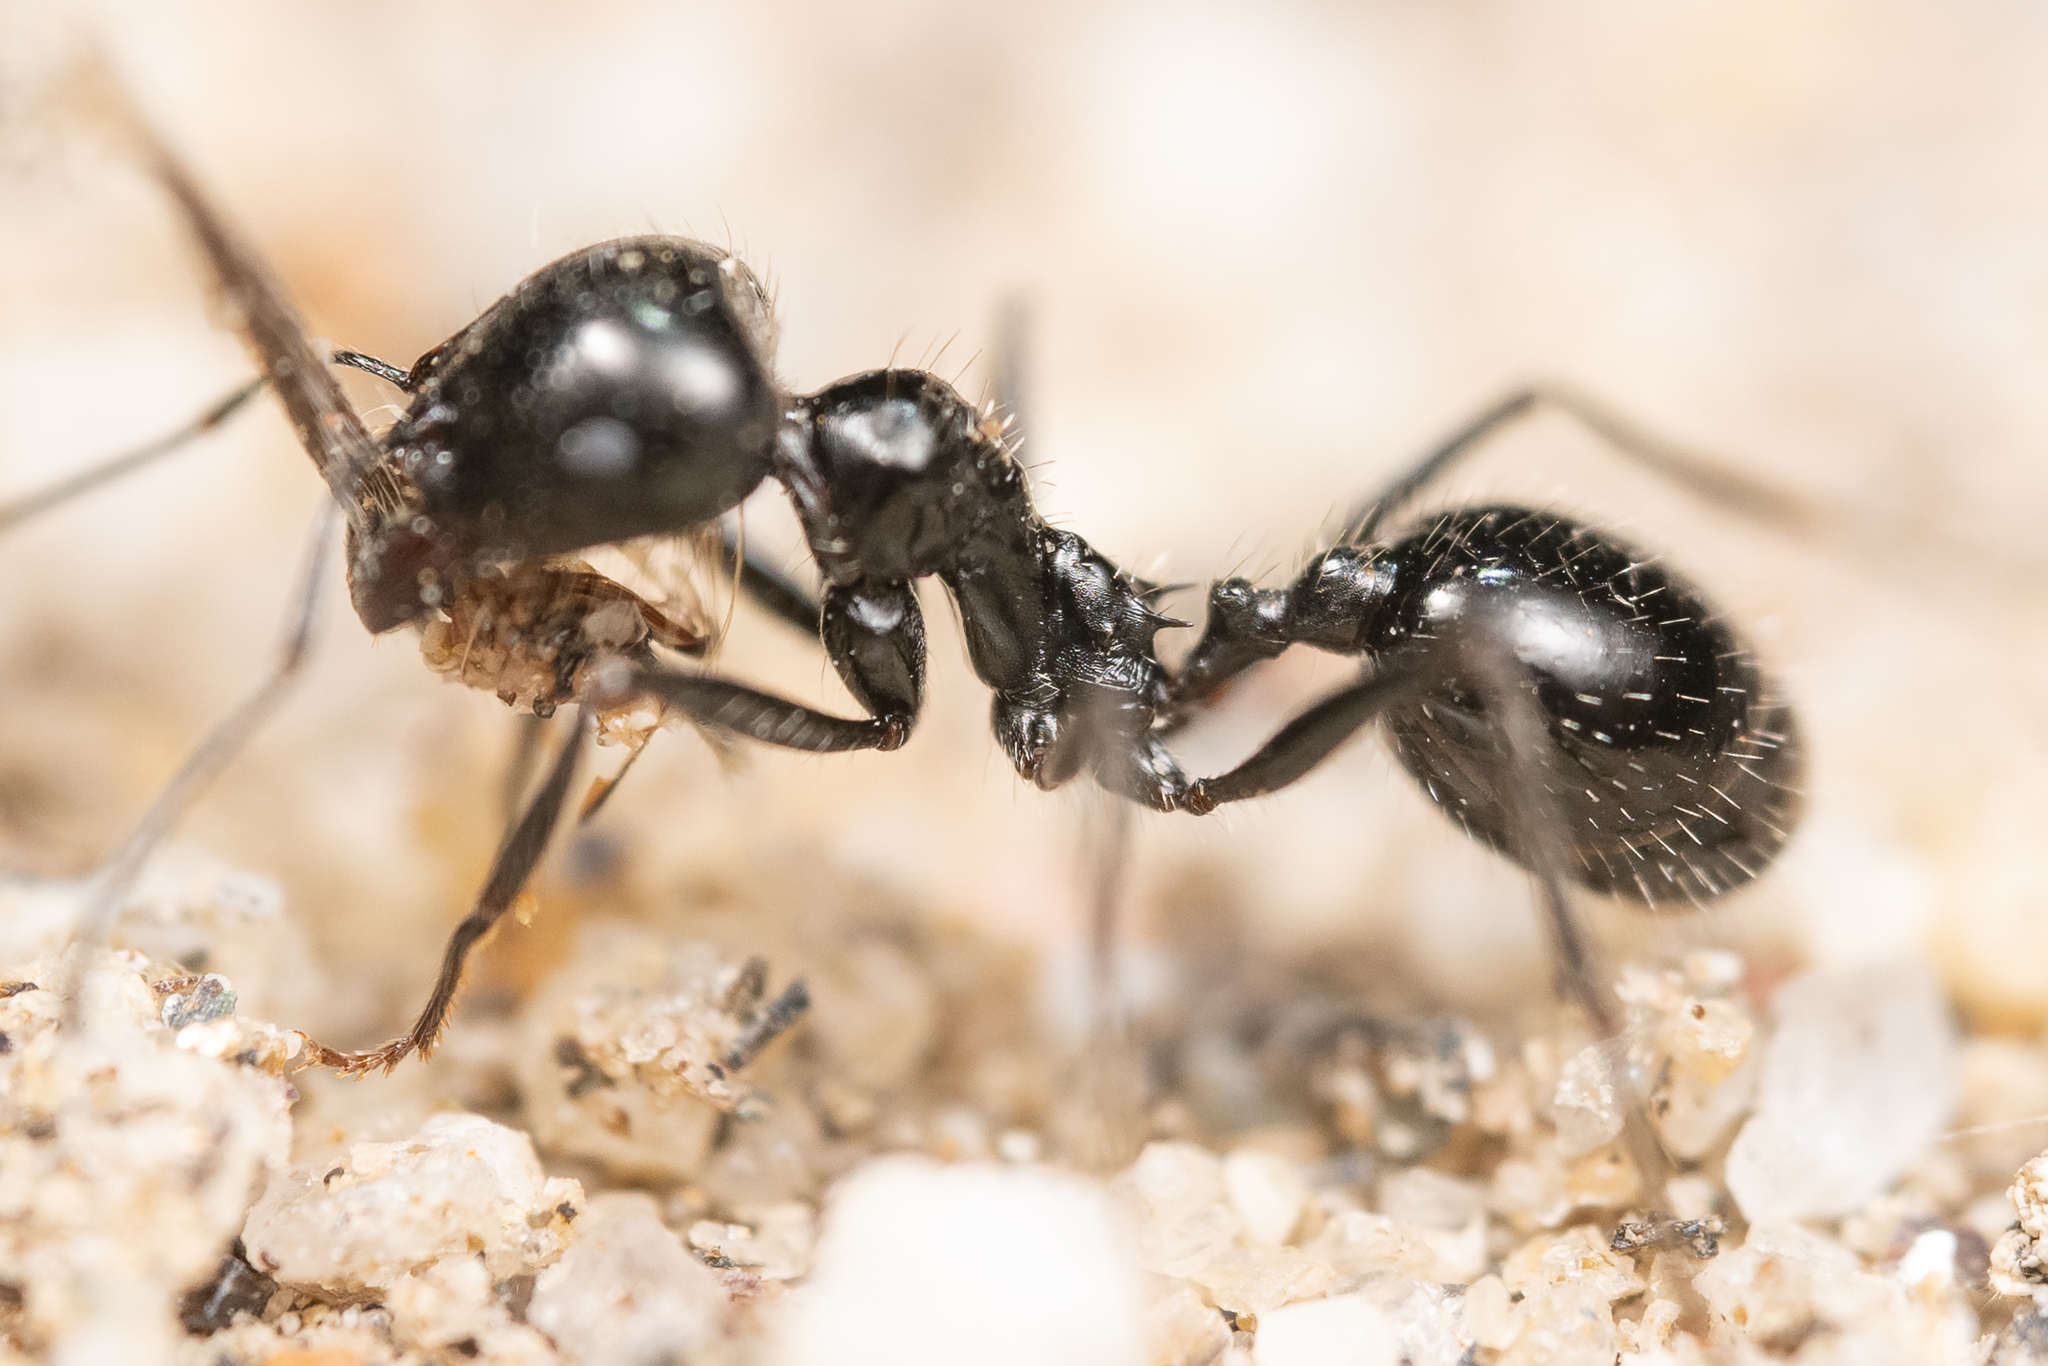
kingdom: Animalia
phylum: Arthropoda
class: Insecta
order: Hymenoptera
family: Formicidae
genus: Messor
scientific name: Messor pergandei
